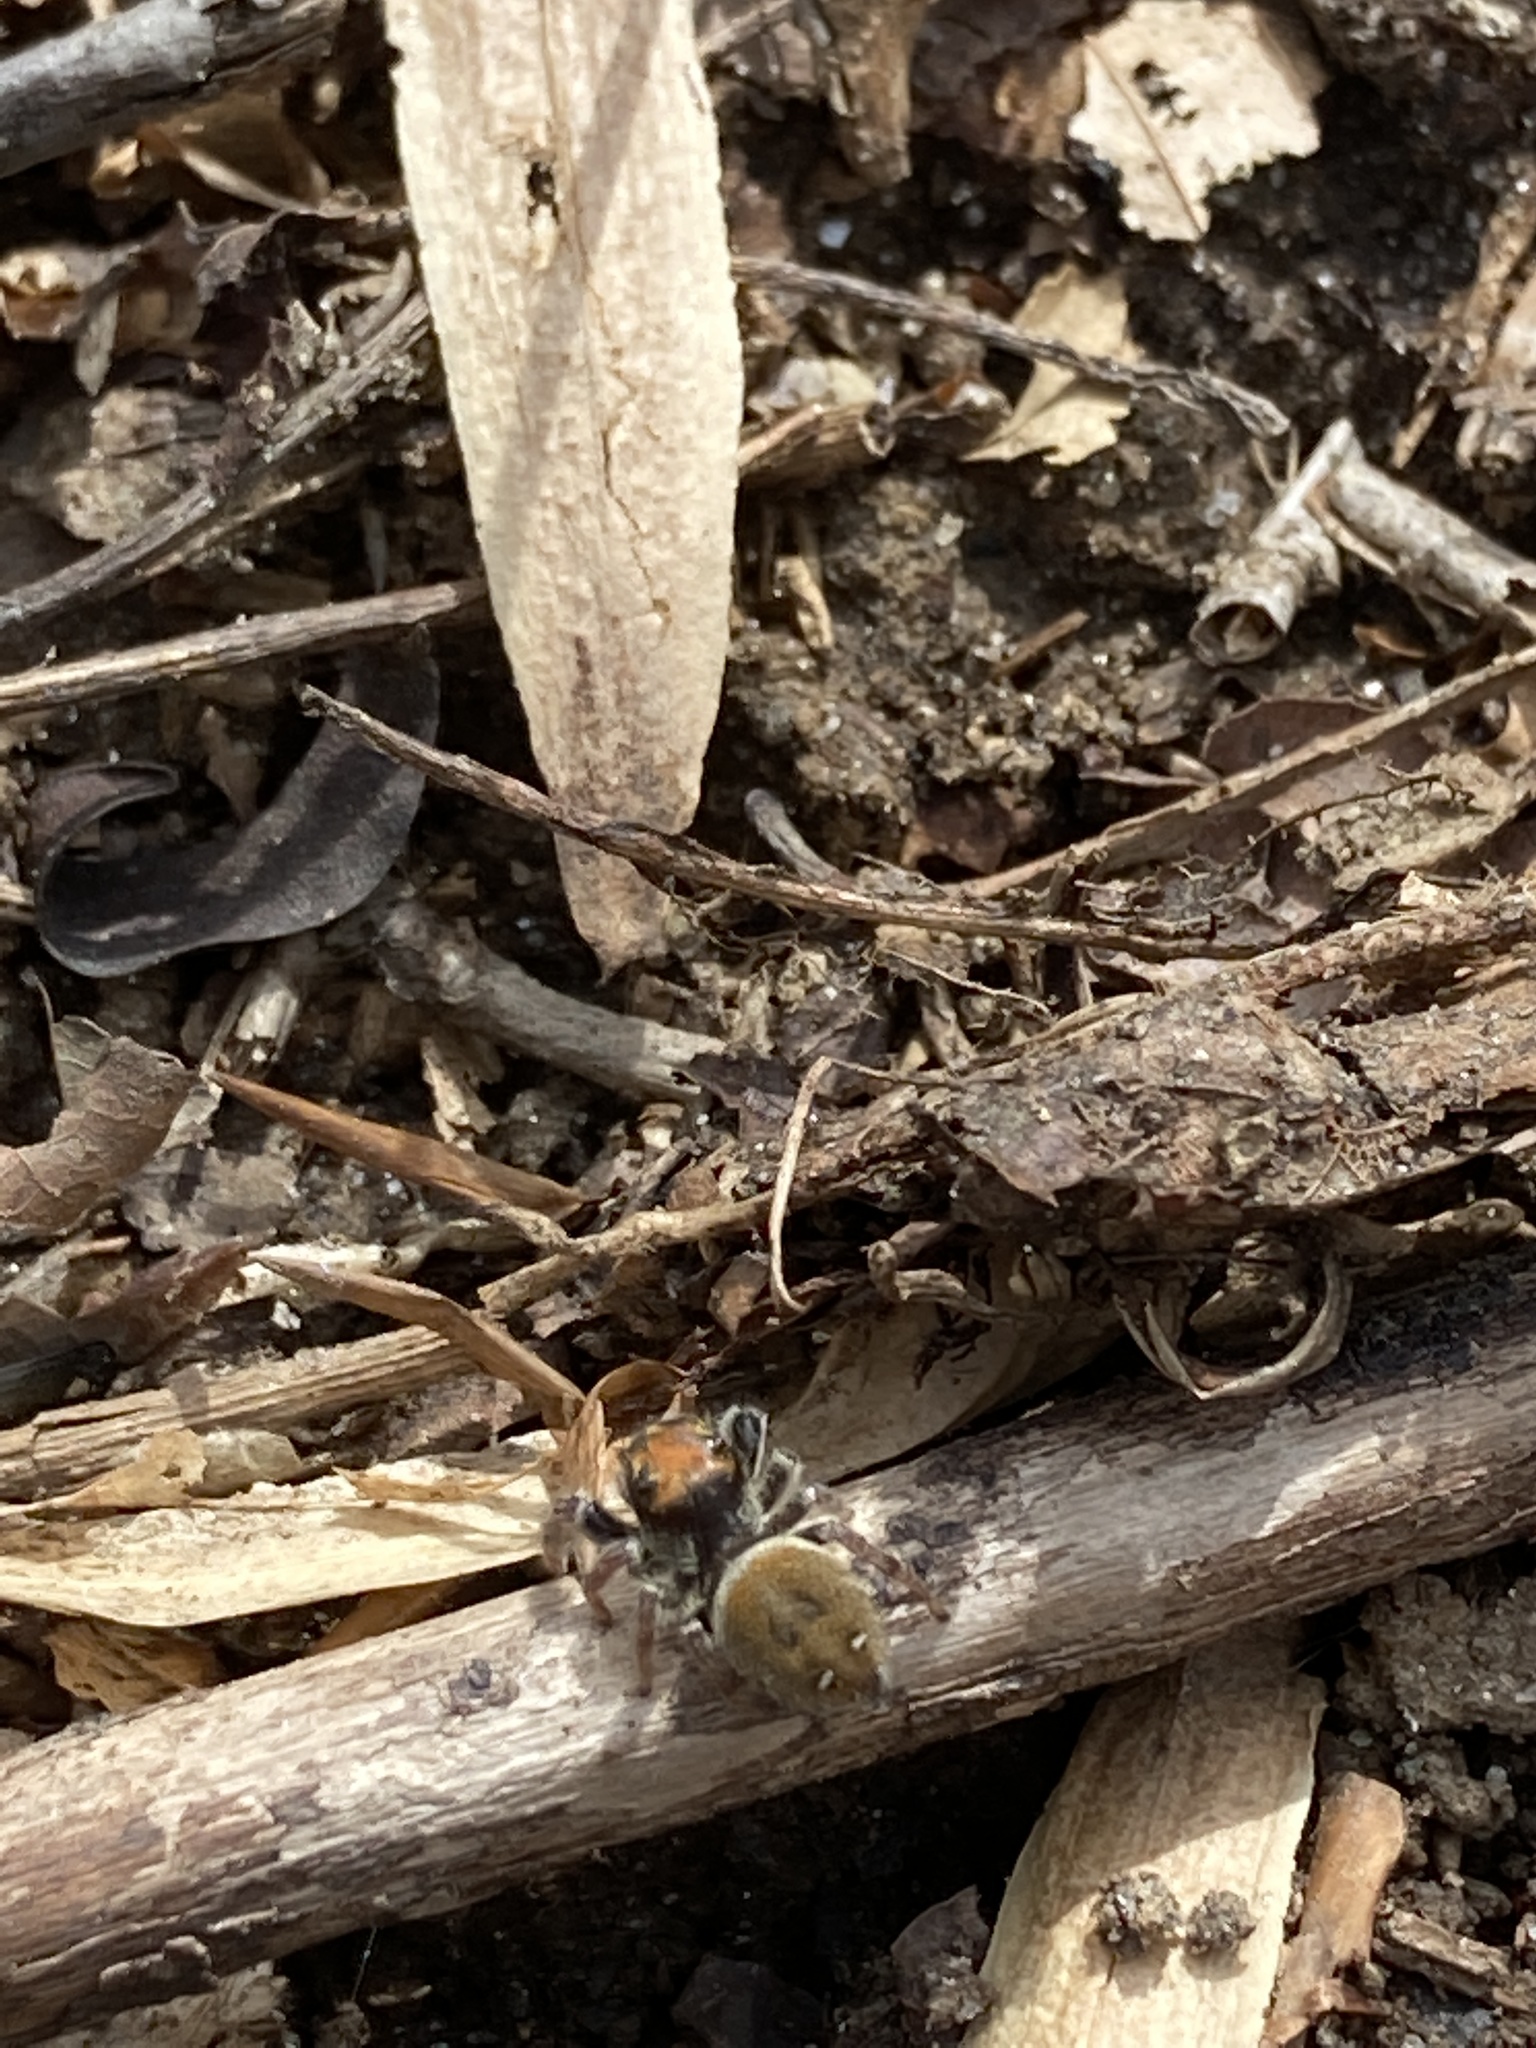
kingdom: Animalia
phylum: Arthropoda
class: Arachnida
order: Araneae
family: Salticidae
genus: Phidippus
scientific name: Phidippus whitmani
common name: Whitman's jumping spider
